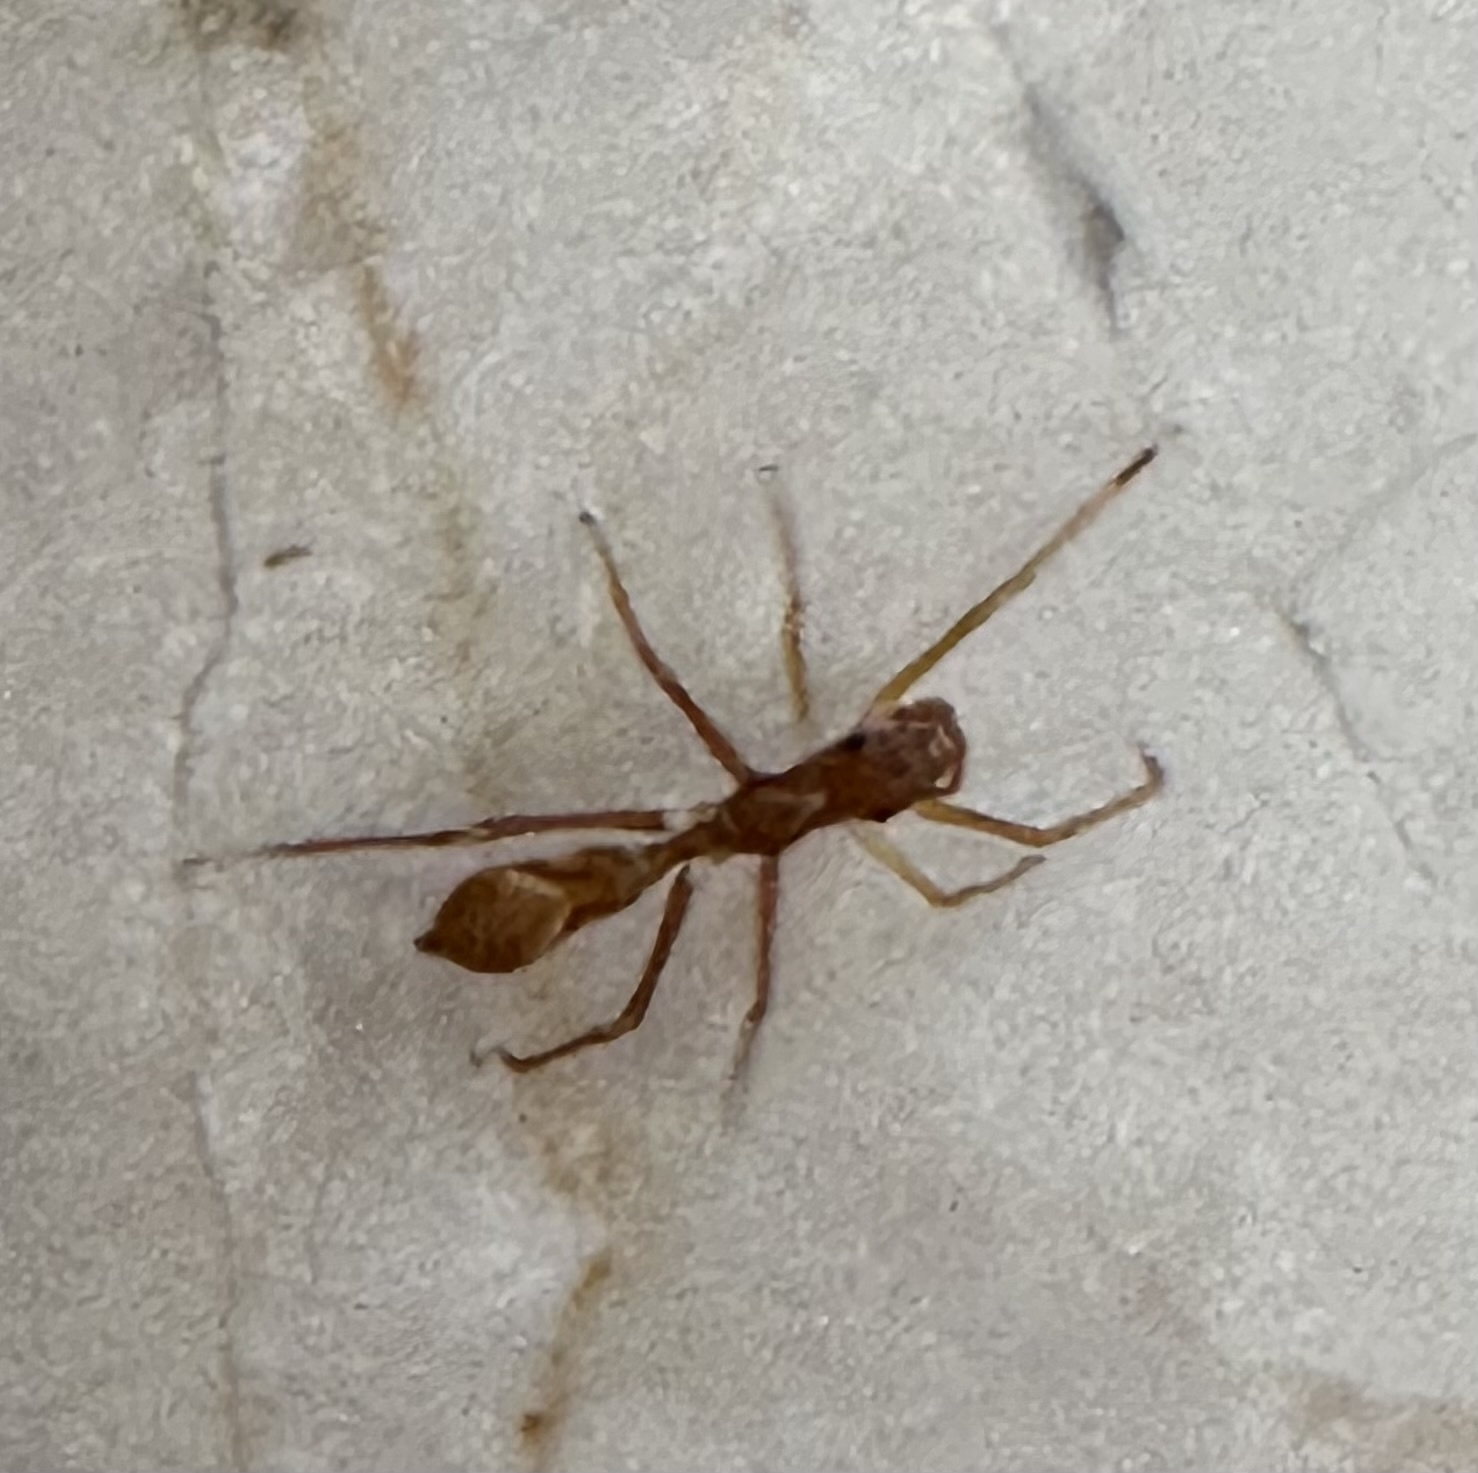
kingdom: Animalia
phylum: Arthropoda
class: Arachnida
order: Araneae
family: Salticidae
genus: Myrmaplata
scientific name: Myrmaplata plataleoides
